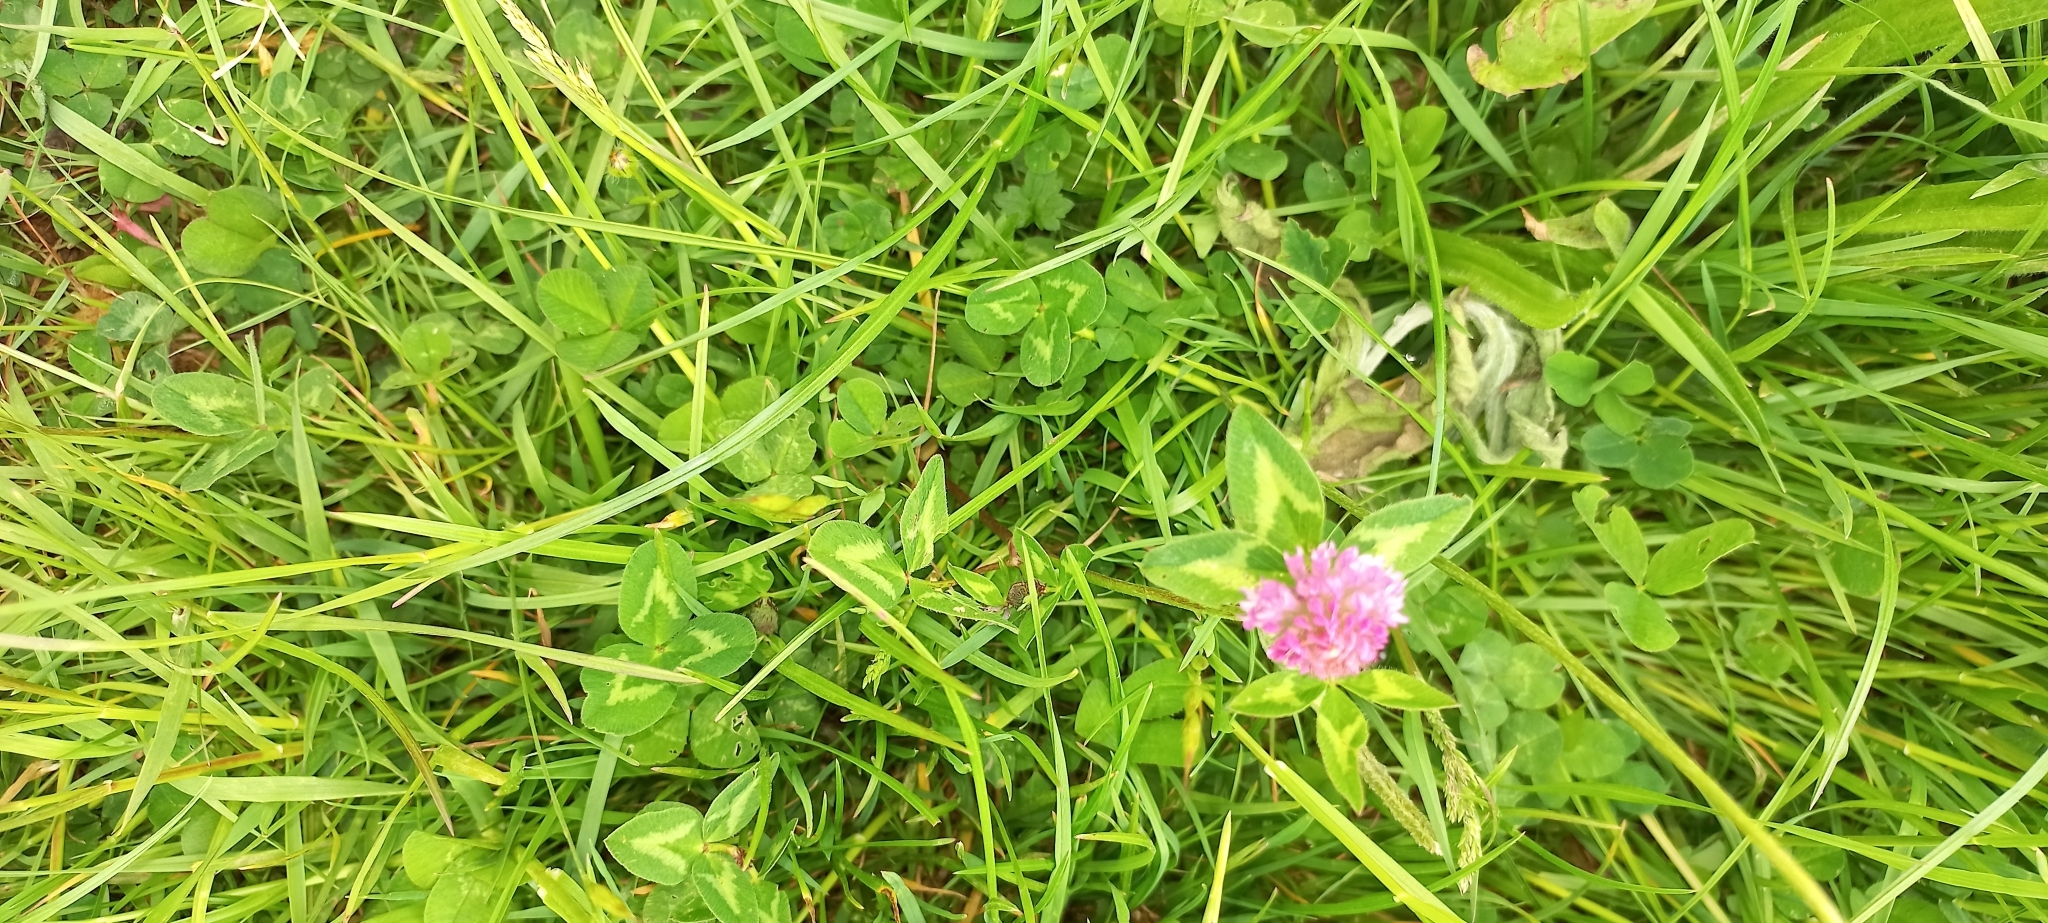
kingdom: Plantae
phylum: Tracheophyta
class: Magnoliopsida
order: Fabales
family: Fabaceae
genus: Trifolium
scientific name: Trifolium pratense
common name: Red clover
